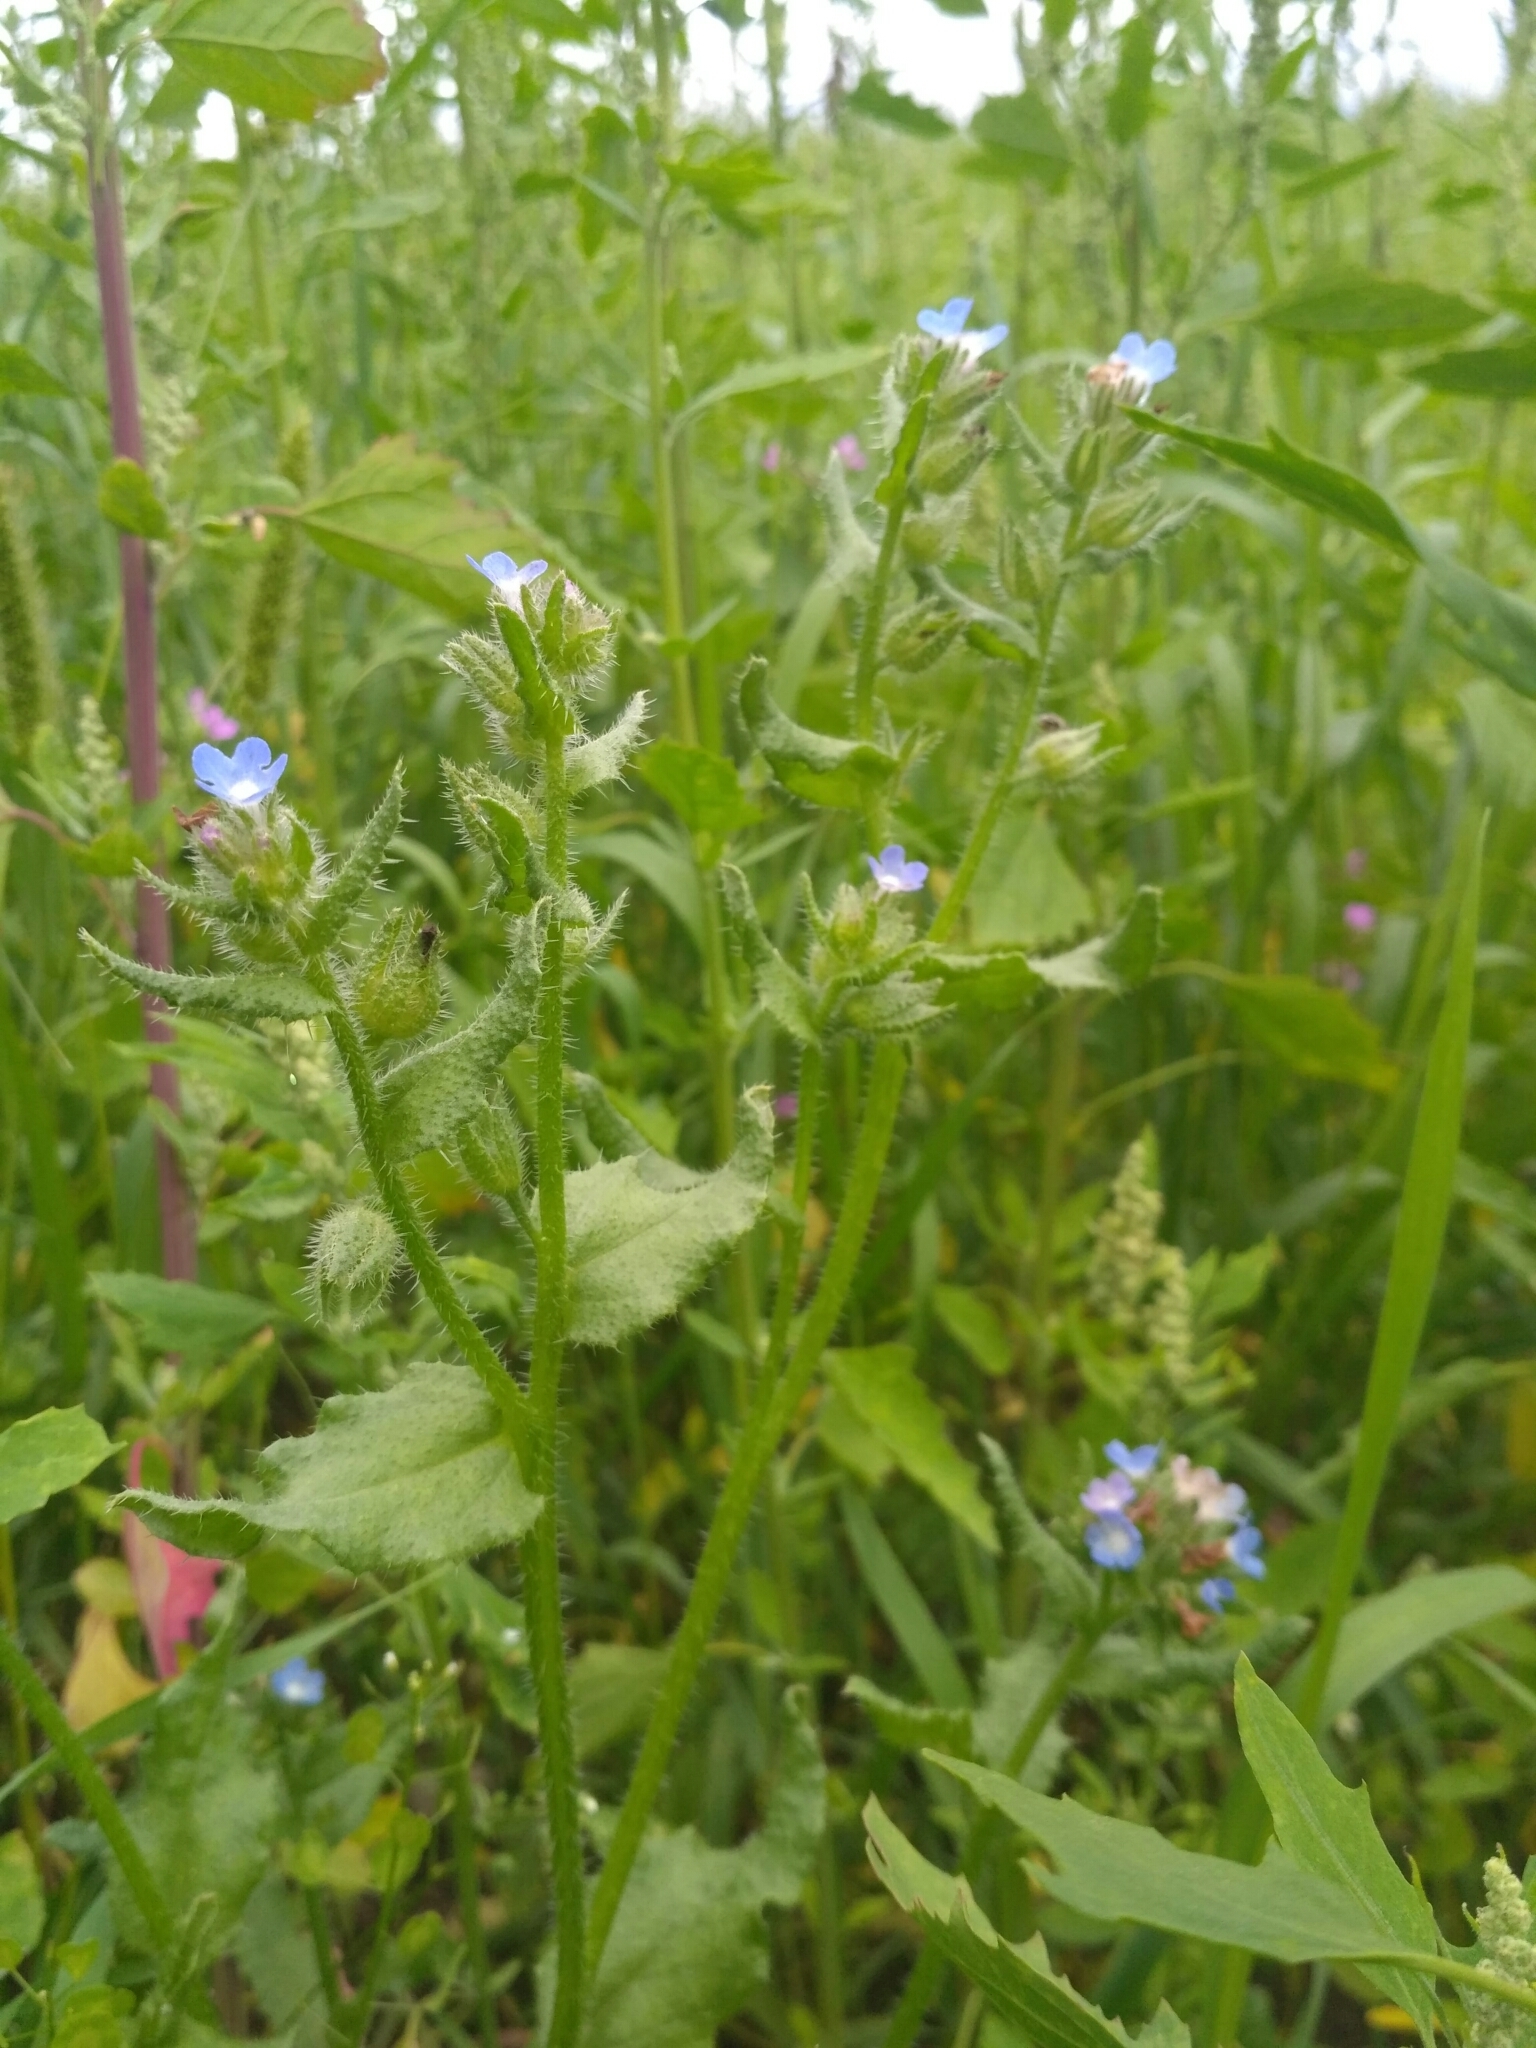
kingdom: Plantae
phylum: Tracheophyta
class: Magnoliopsida
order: Boraginales
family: Boraginaceae
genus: Lycopsis
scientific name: Lycopsis arvensis
